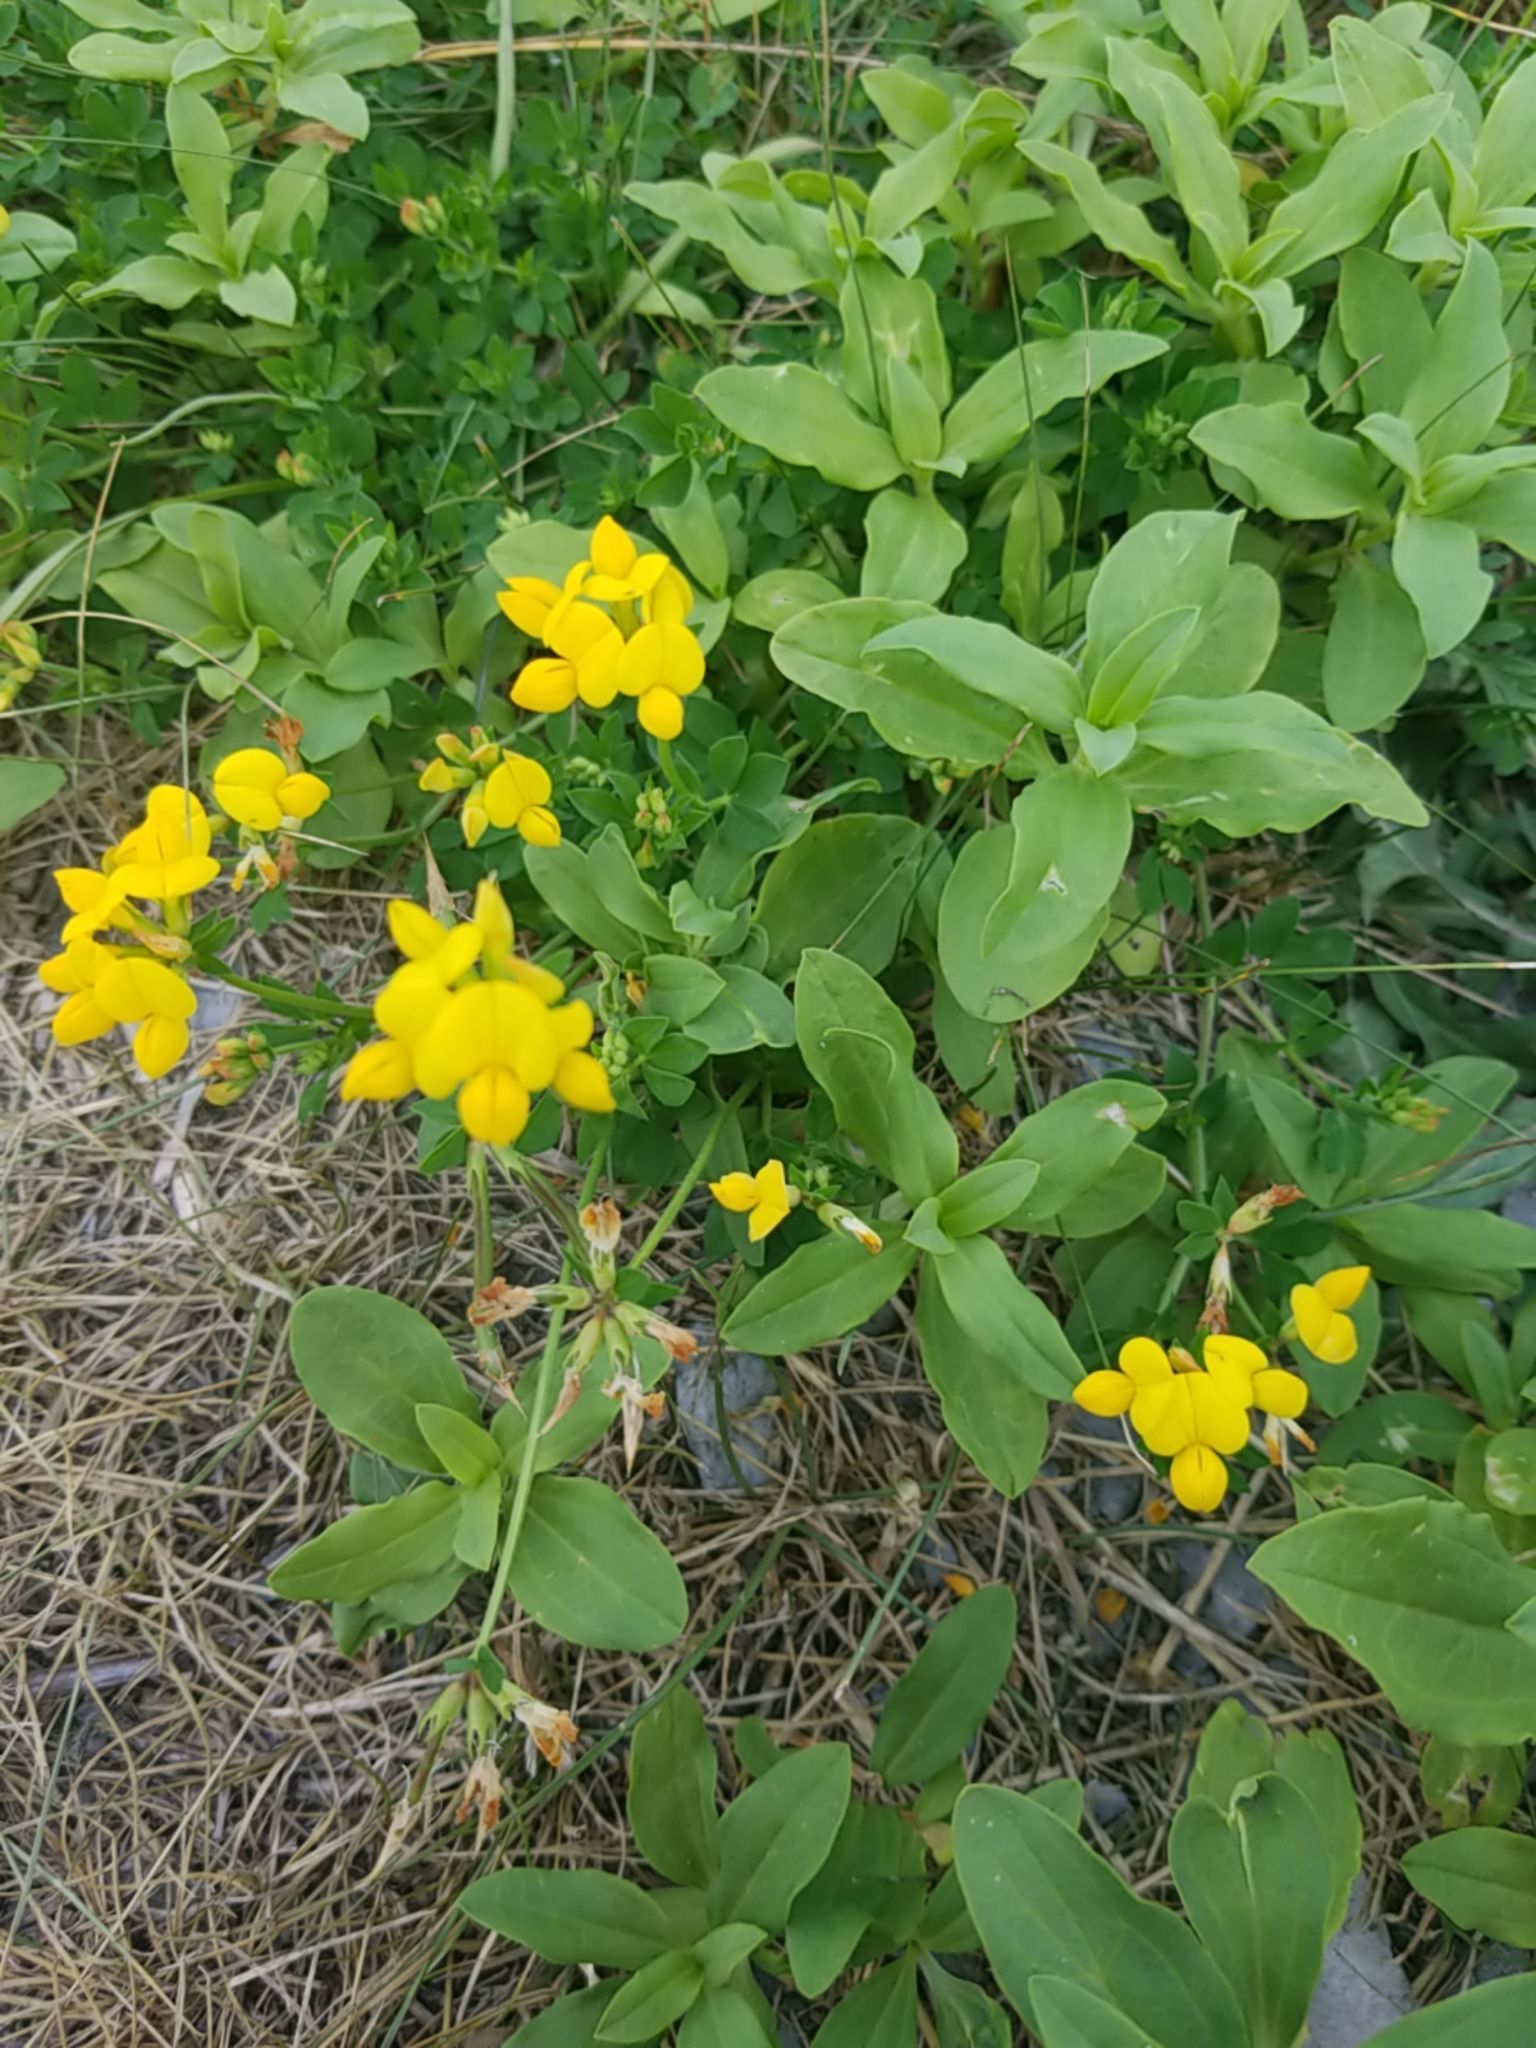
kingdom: Plantae
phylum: Tracheophyta
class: Magnoliopsida
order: Fabales
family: Fabaceae
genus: Lotus
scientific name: Lotus corniculatus
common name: Common bird's-foot-trefoil
